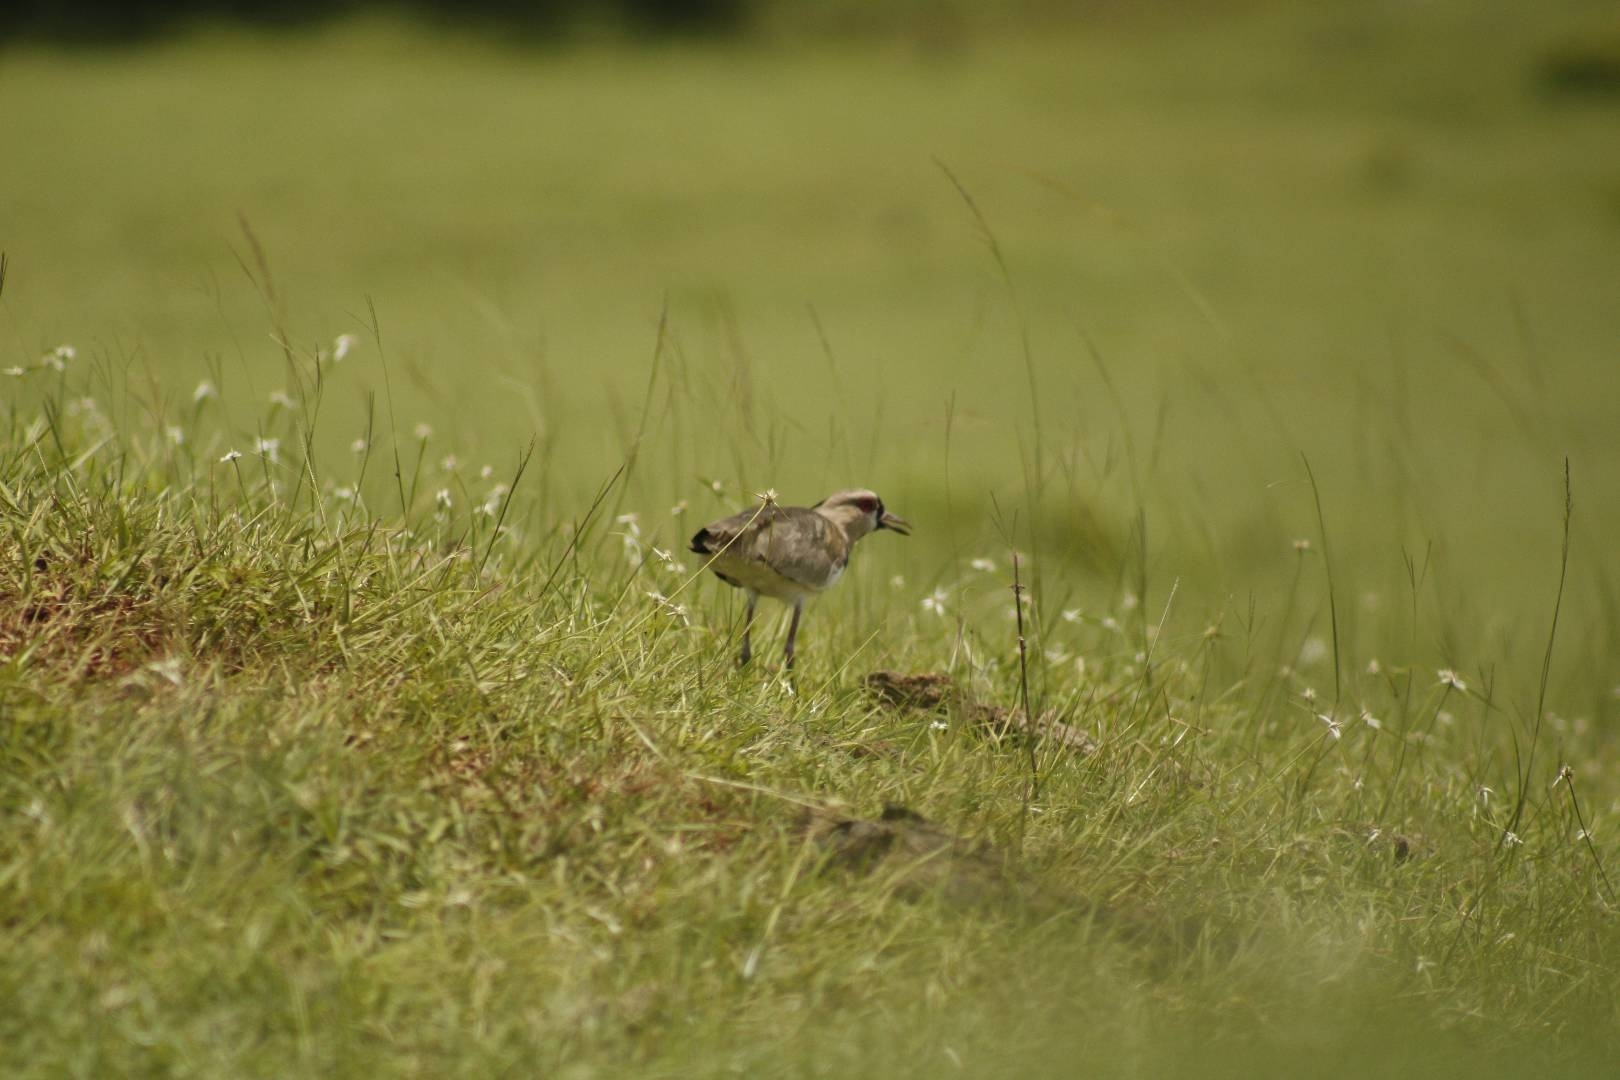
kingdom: Animalia
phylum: Chordata
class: Aves
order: Charadriiformes
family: Charadriidae
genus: Vanellus
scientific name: Vanellus chilensis
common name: Southern lapwing
